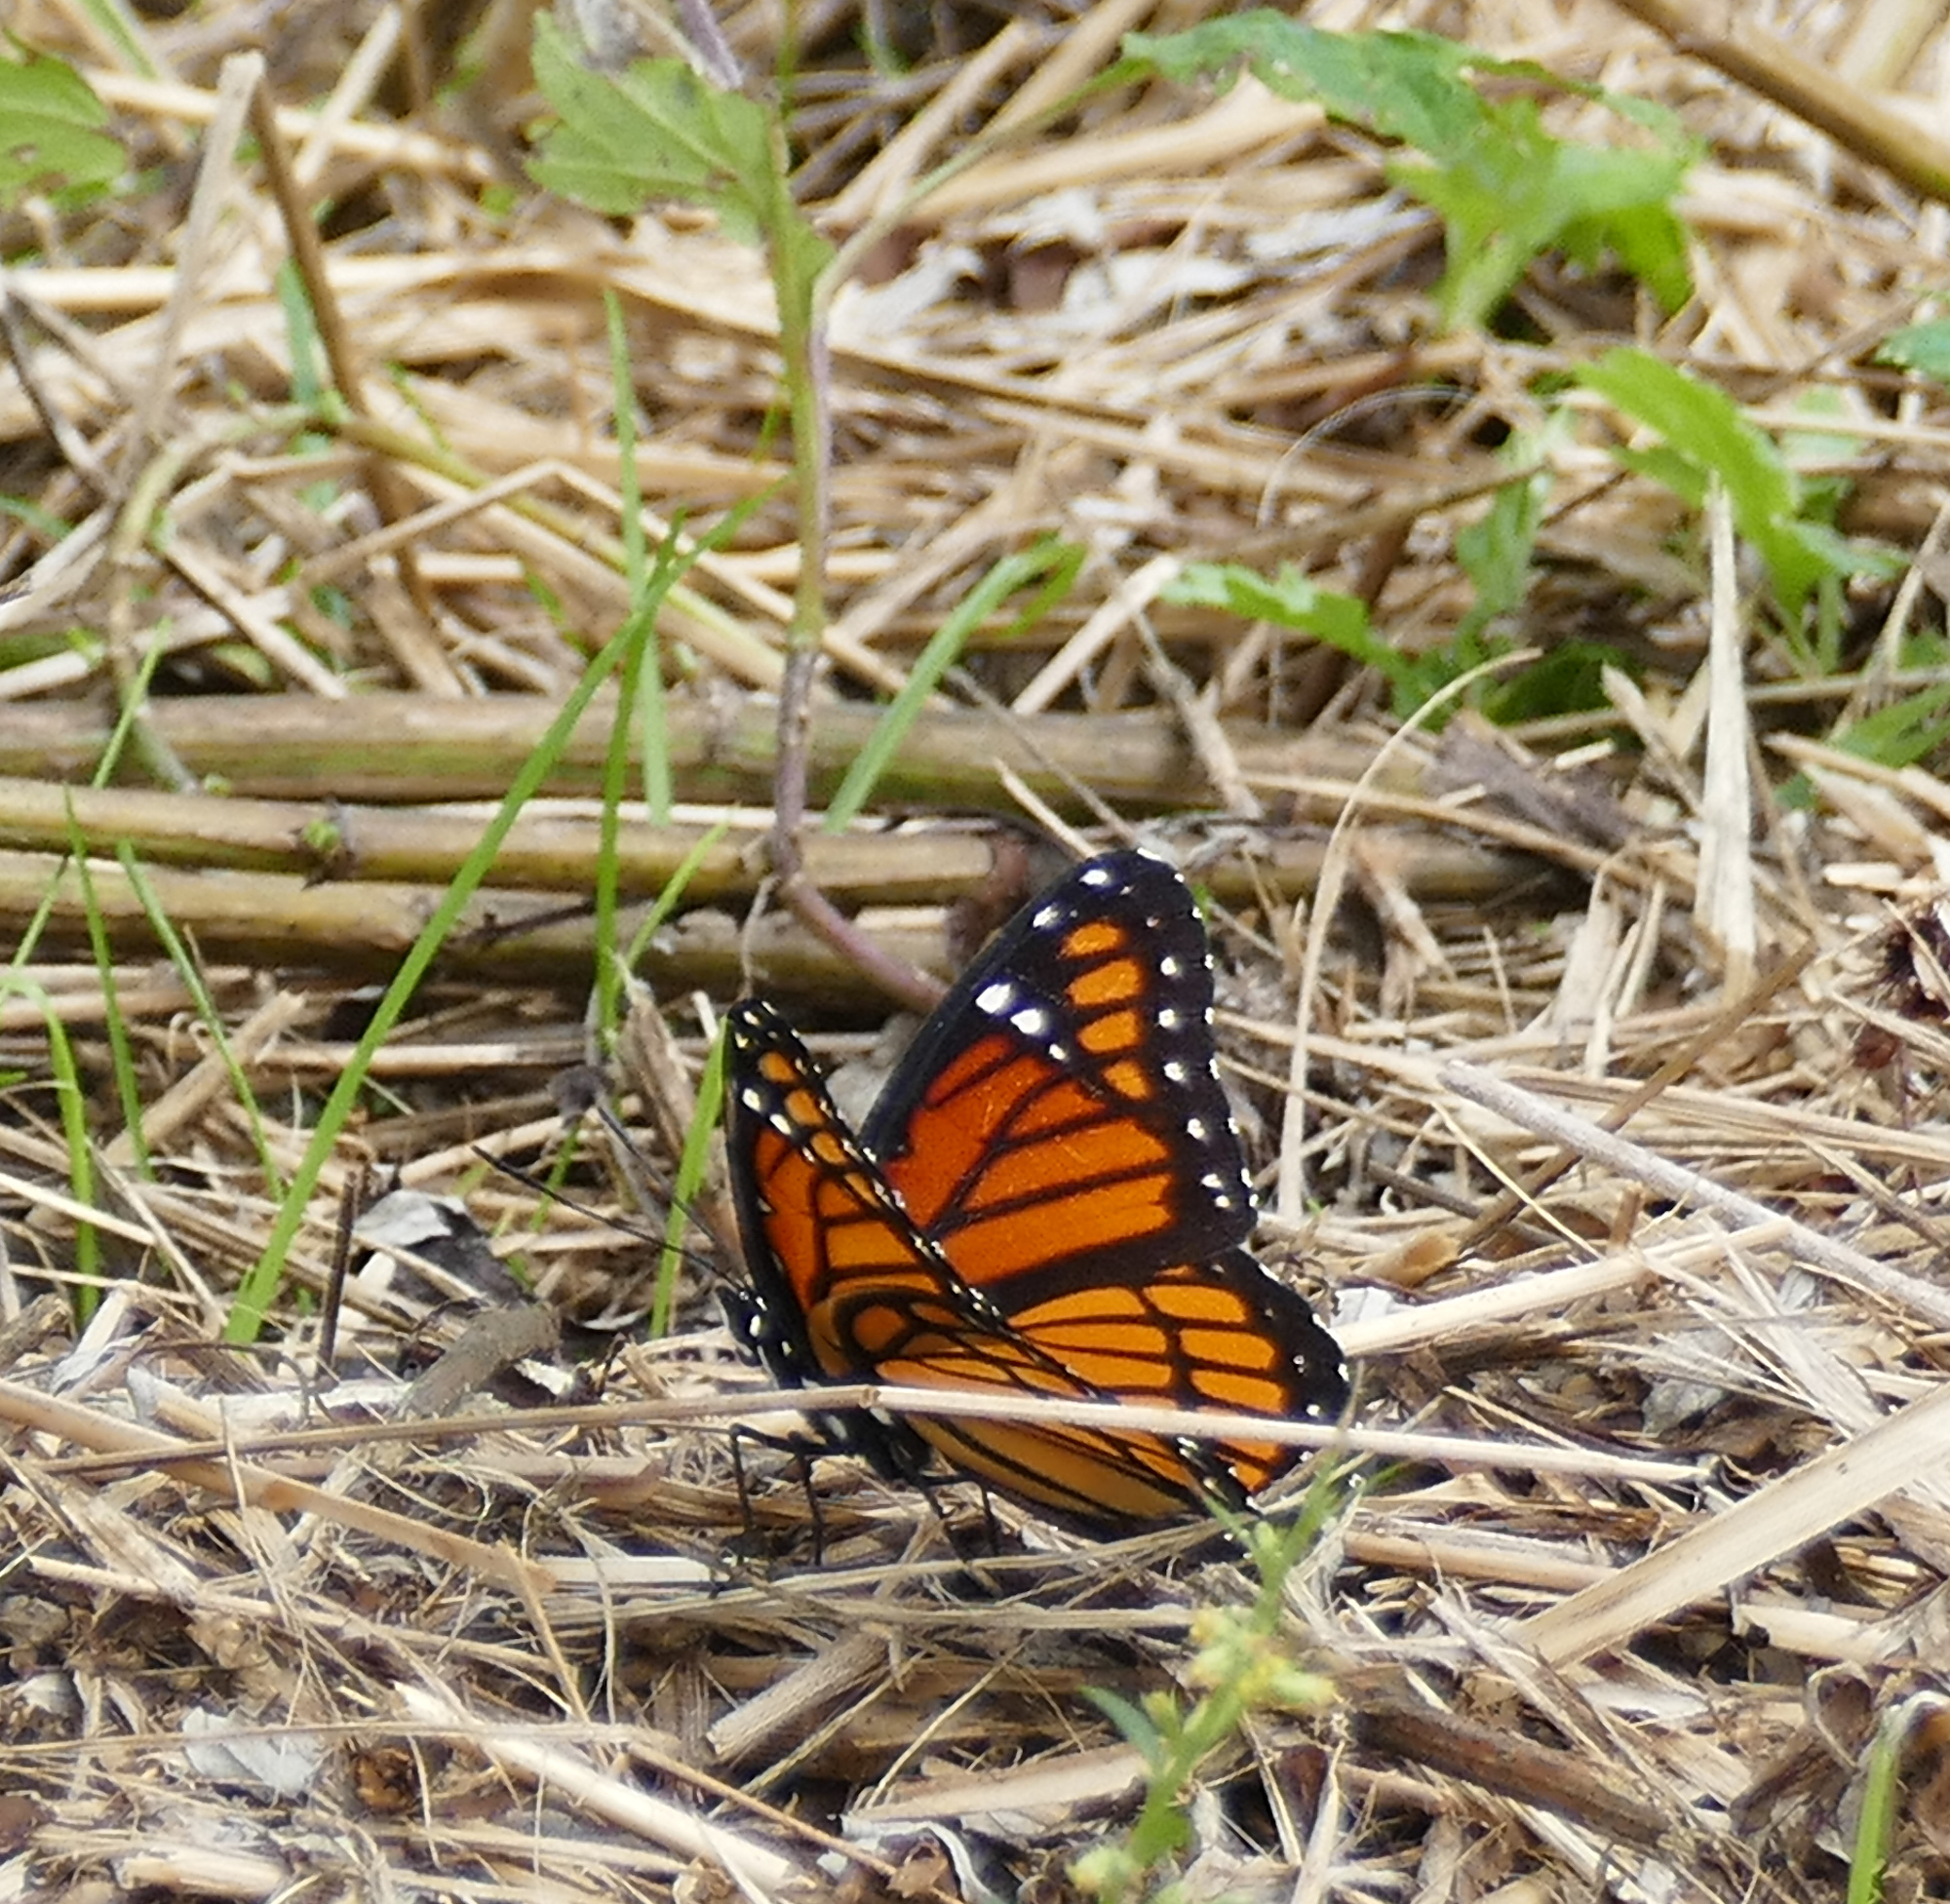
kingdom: Animalia
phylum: Arthropoda
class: Insecta
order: Lepidoptera
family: Nymphalidae
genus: Limenitis
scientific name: Limenitis archippus
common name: Viceroy
